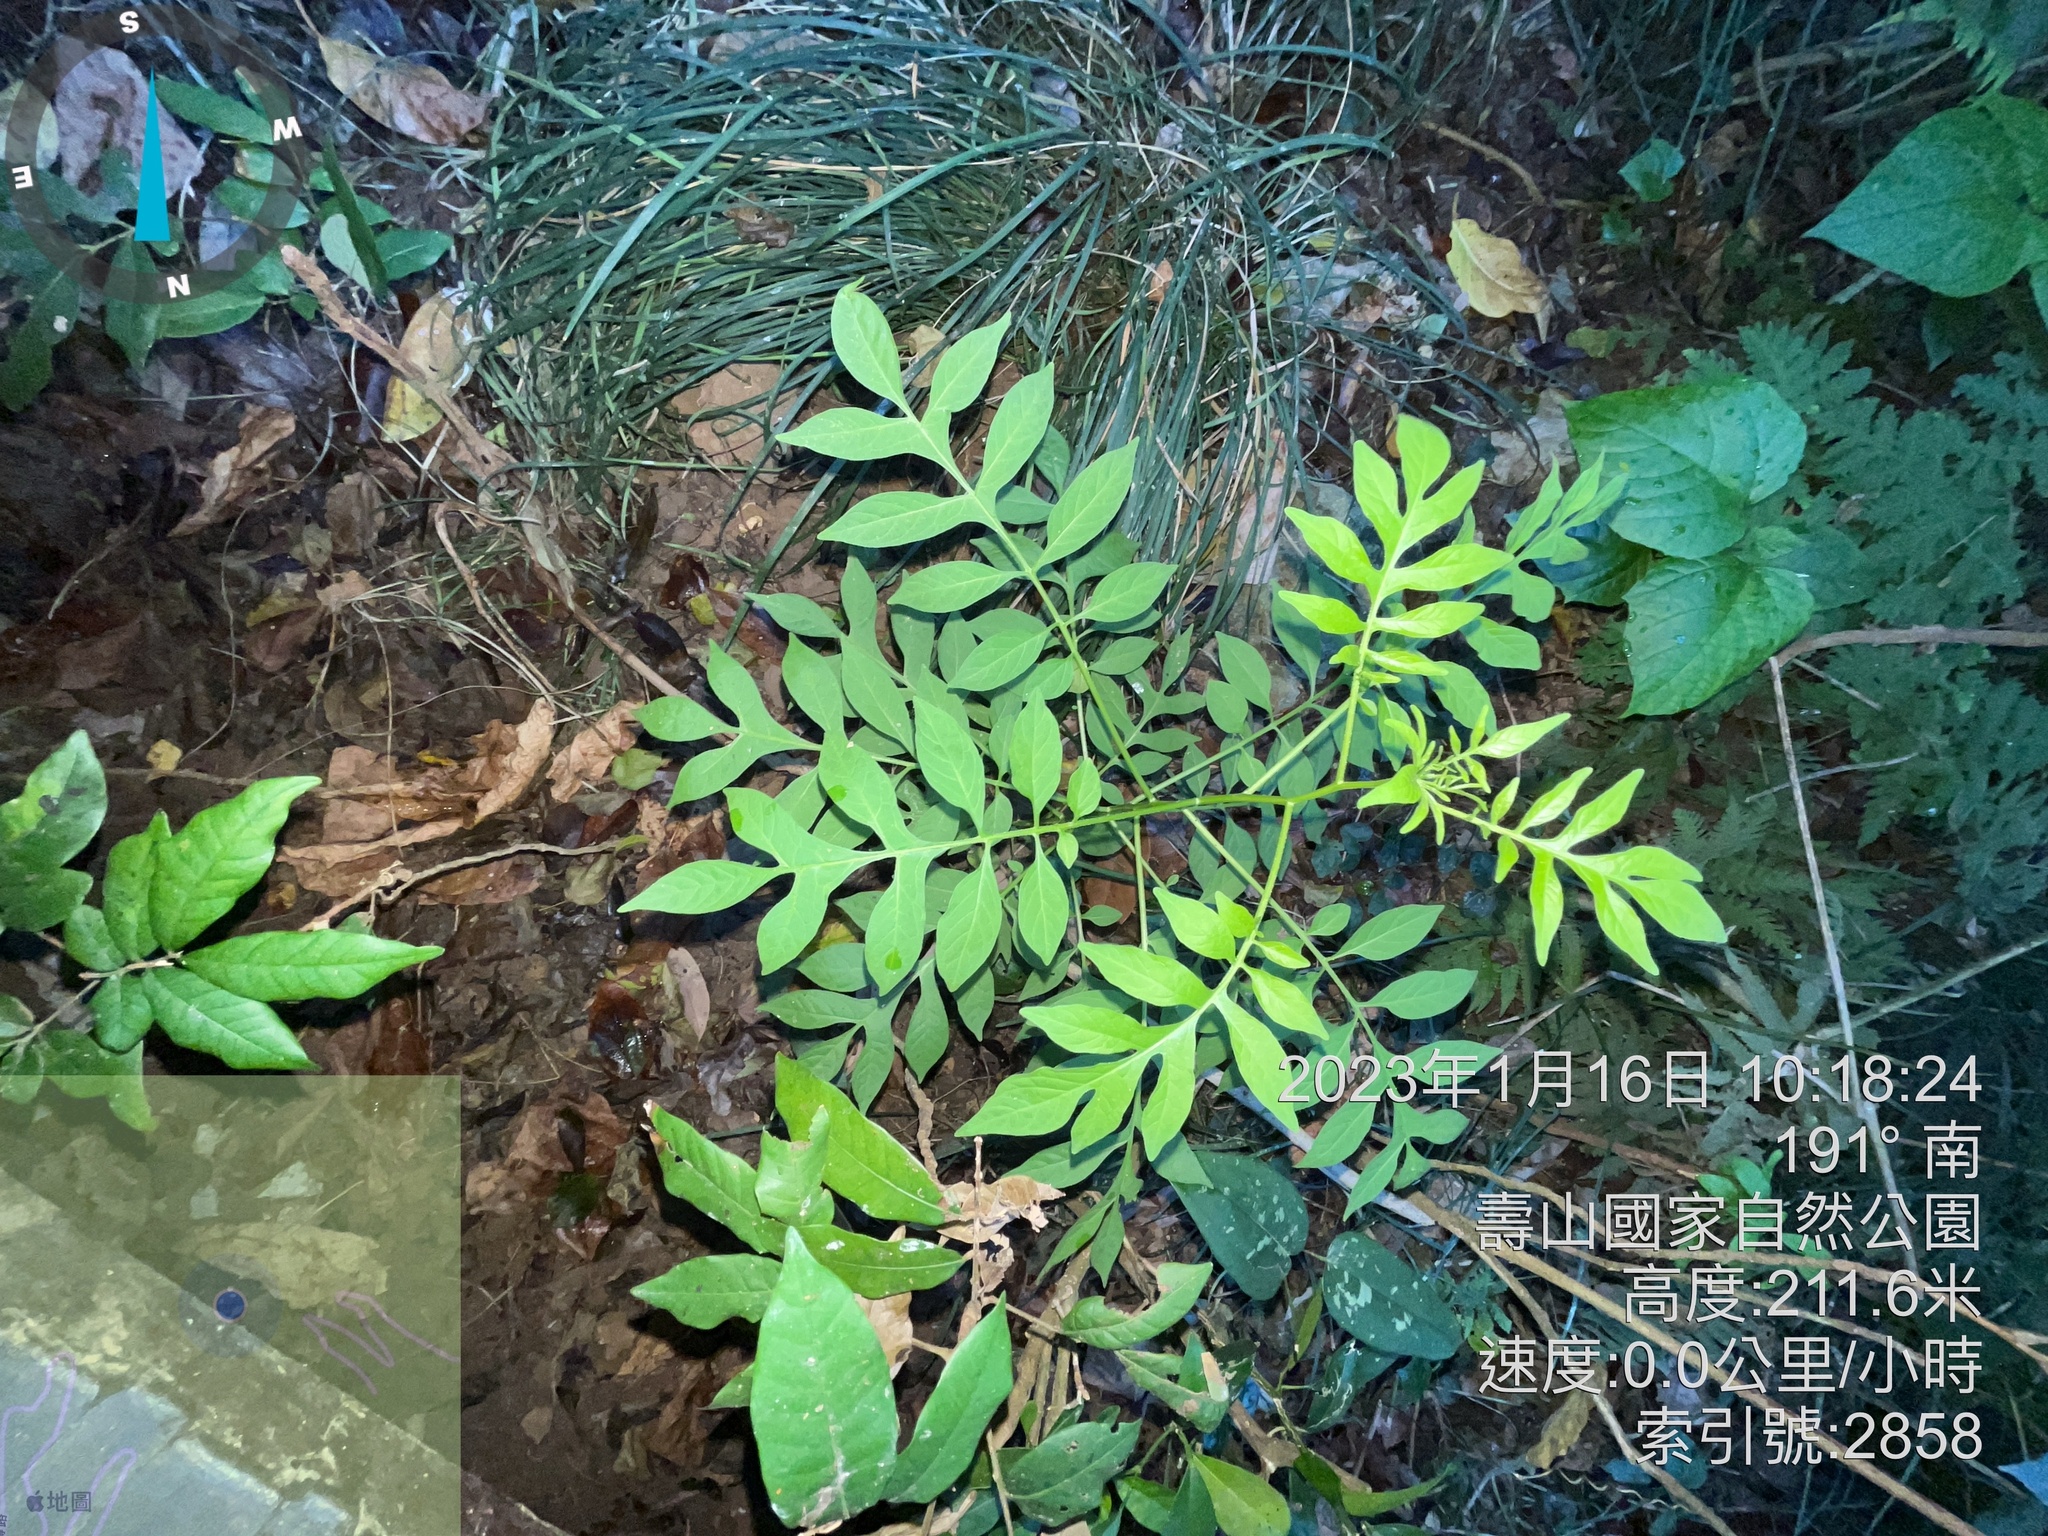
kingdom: Plantae
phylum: Tracheophyta
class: Magnoliopsida
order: Solanales
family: Solanaceae
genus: Solanum
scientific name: Solanum seaforthianum
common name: Brazilian nightshade
